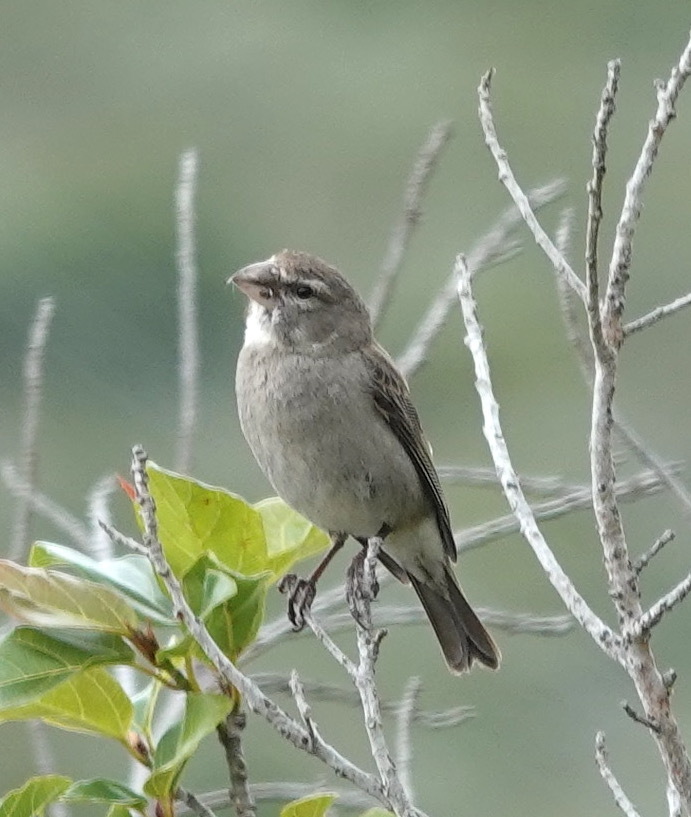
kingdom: Animalia
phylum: Chordata
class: Aves
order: Passeriformes
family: Fringillidae
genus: Crithagra
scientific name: Crithagra albogularis
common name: White-throated canary
